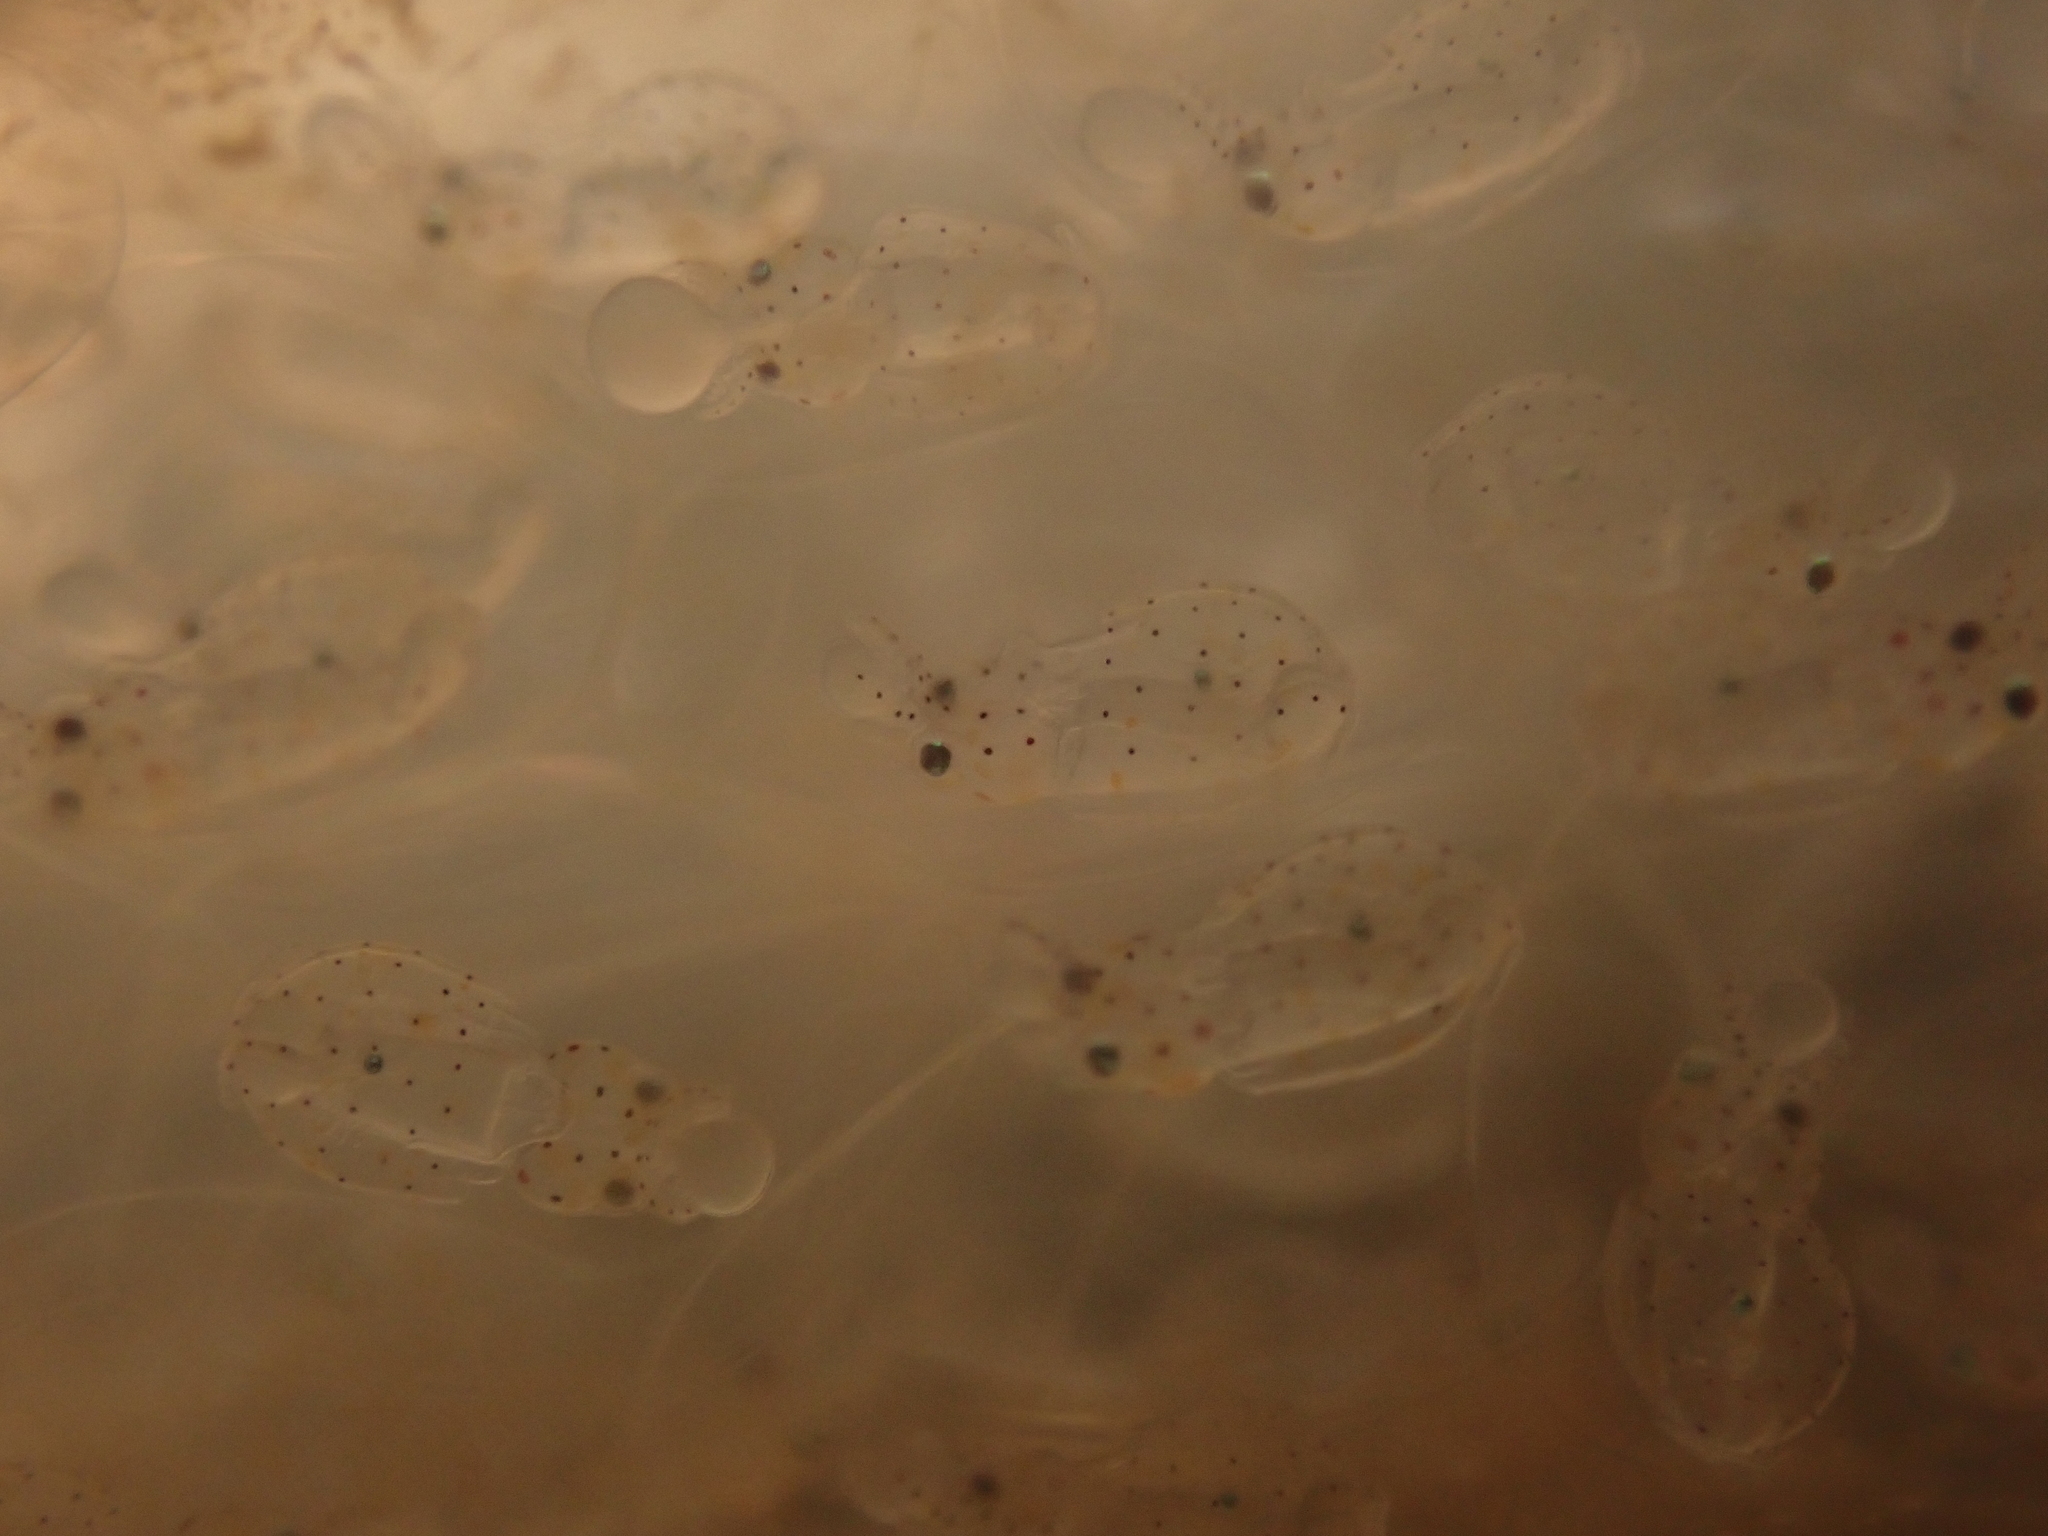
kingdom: Animalia
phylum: Mollusca
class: Cephalopoda
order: Myopsida
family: Loliginidae
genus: Doryteuthis
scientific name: Doryteuthis pealeii
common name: Long-finned inshore squid
